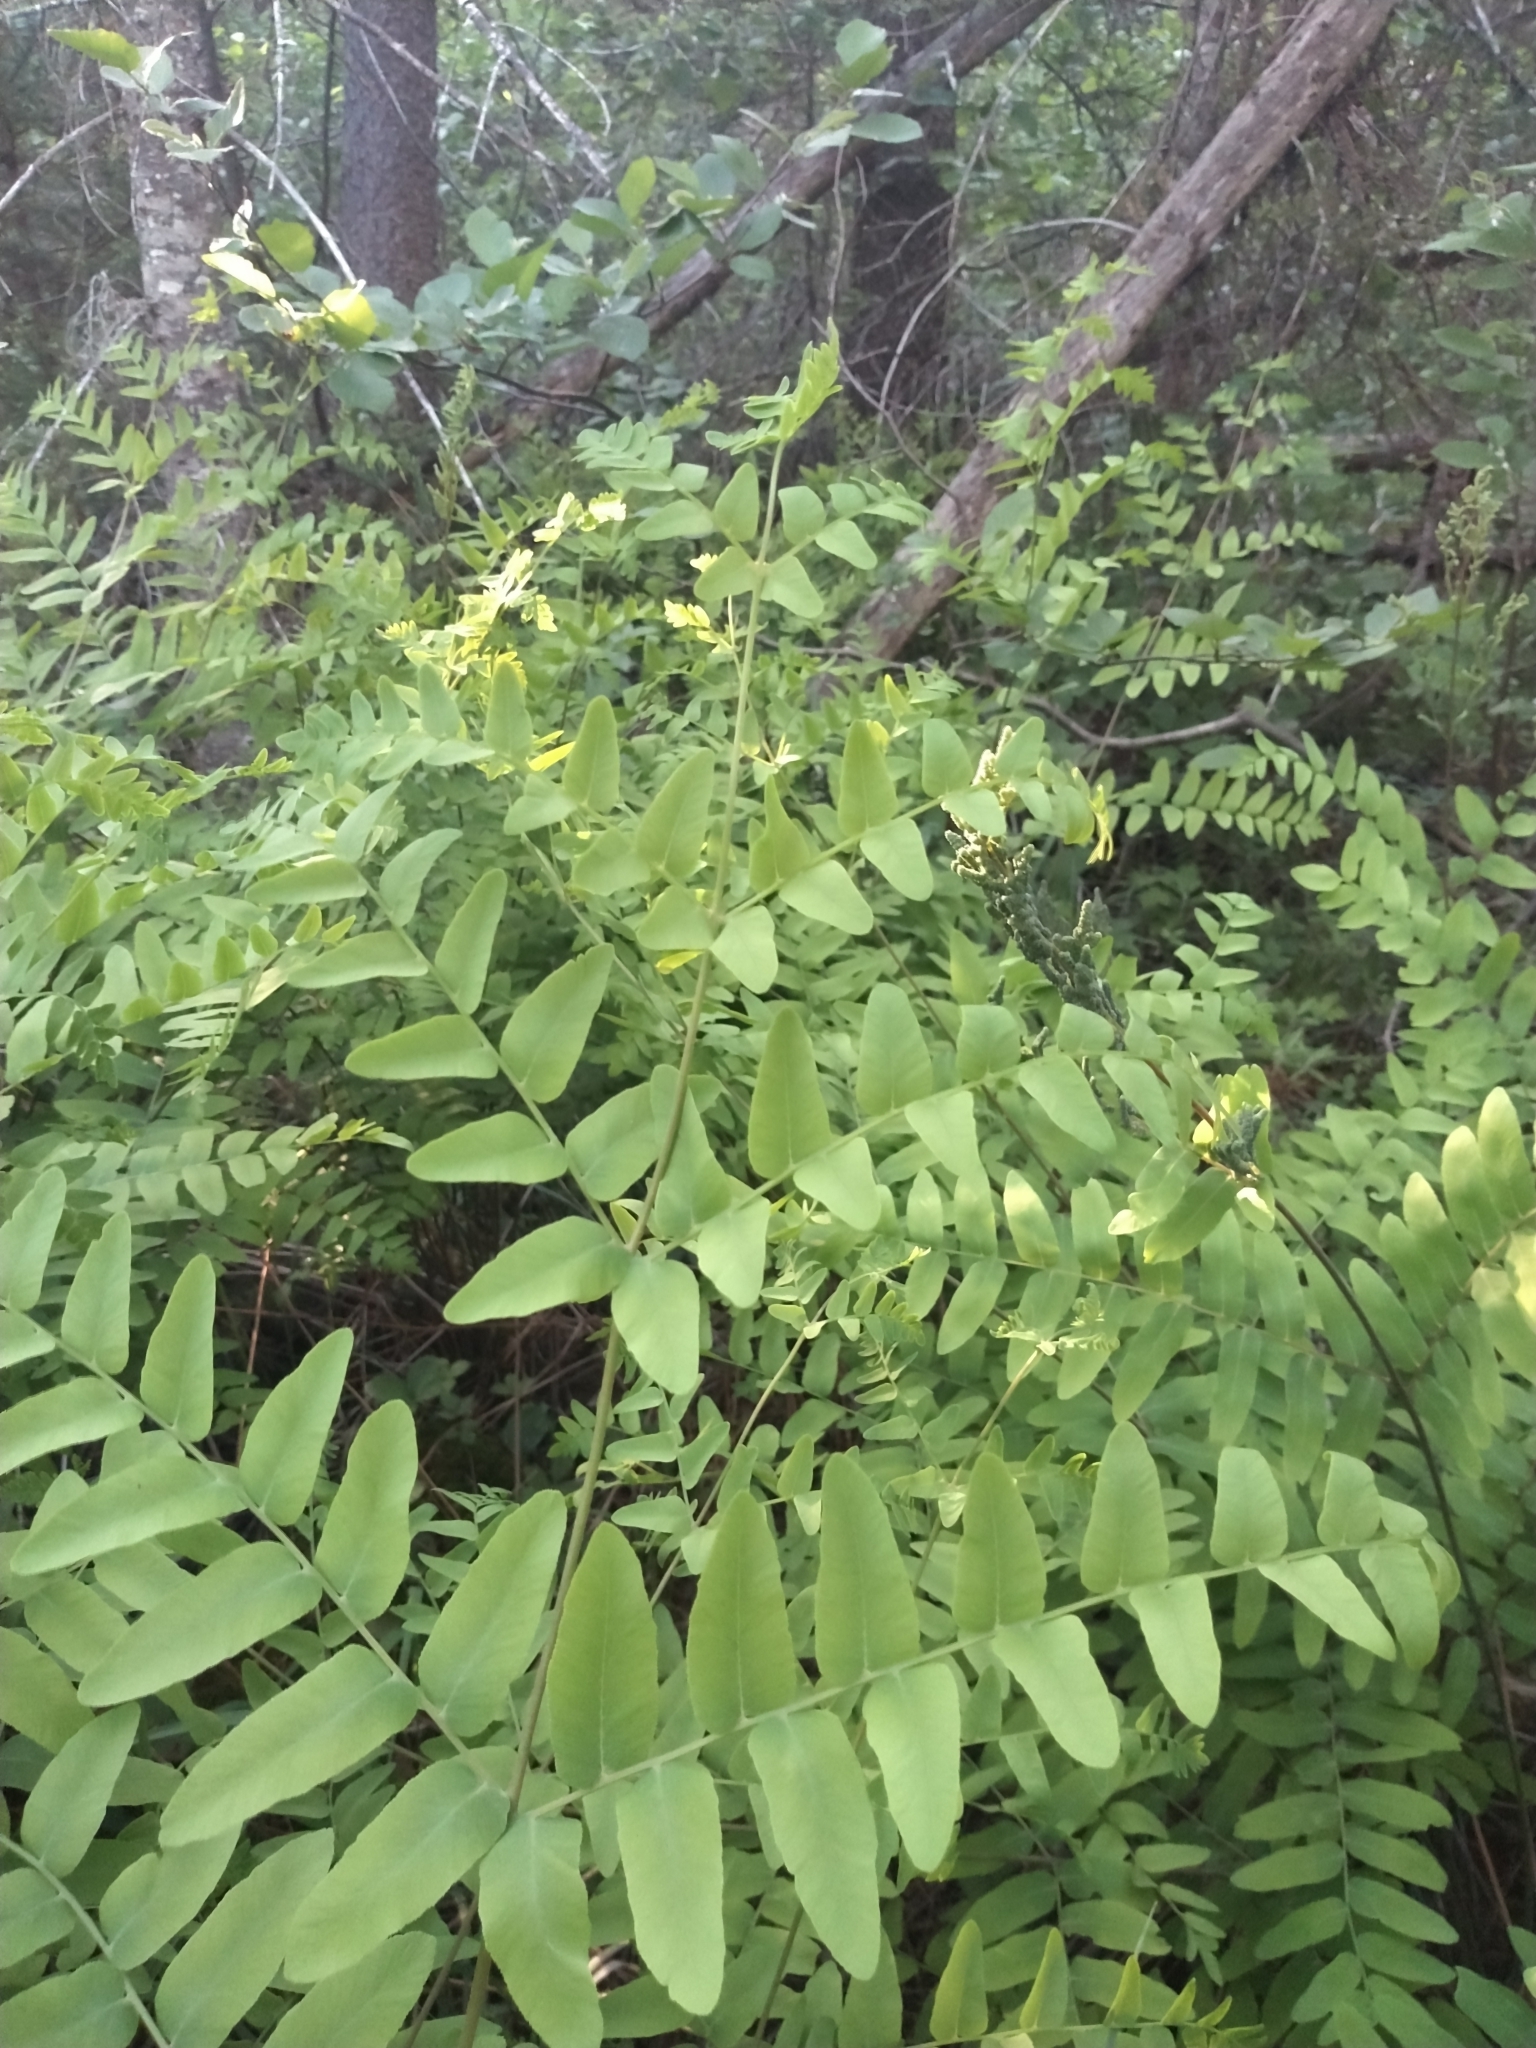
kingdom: Plantae
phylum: Tracheophyta
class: Polypodiopsida
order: Osmundales
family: Osmundaceae
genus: Osmunda
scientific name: Osmunda spectabilis
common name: American royal fern
